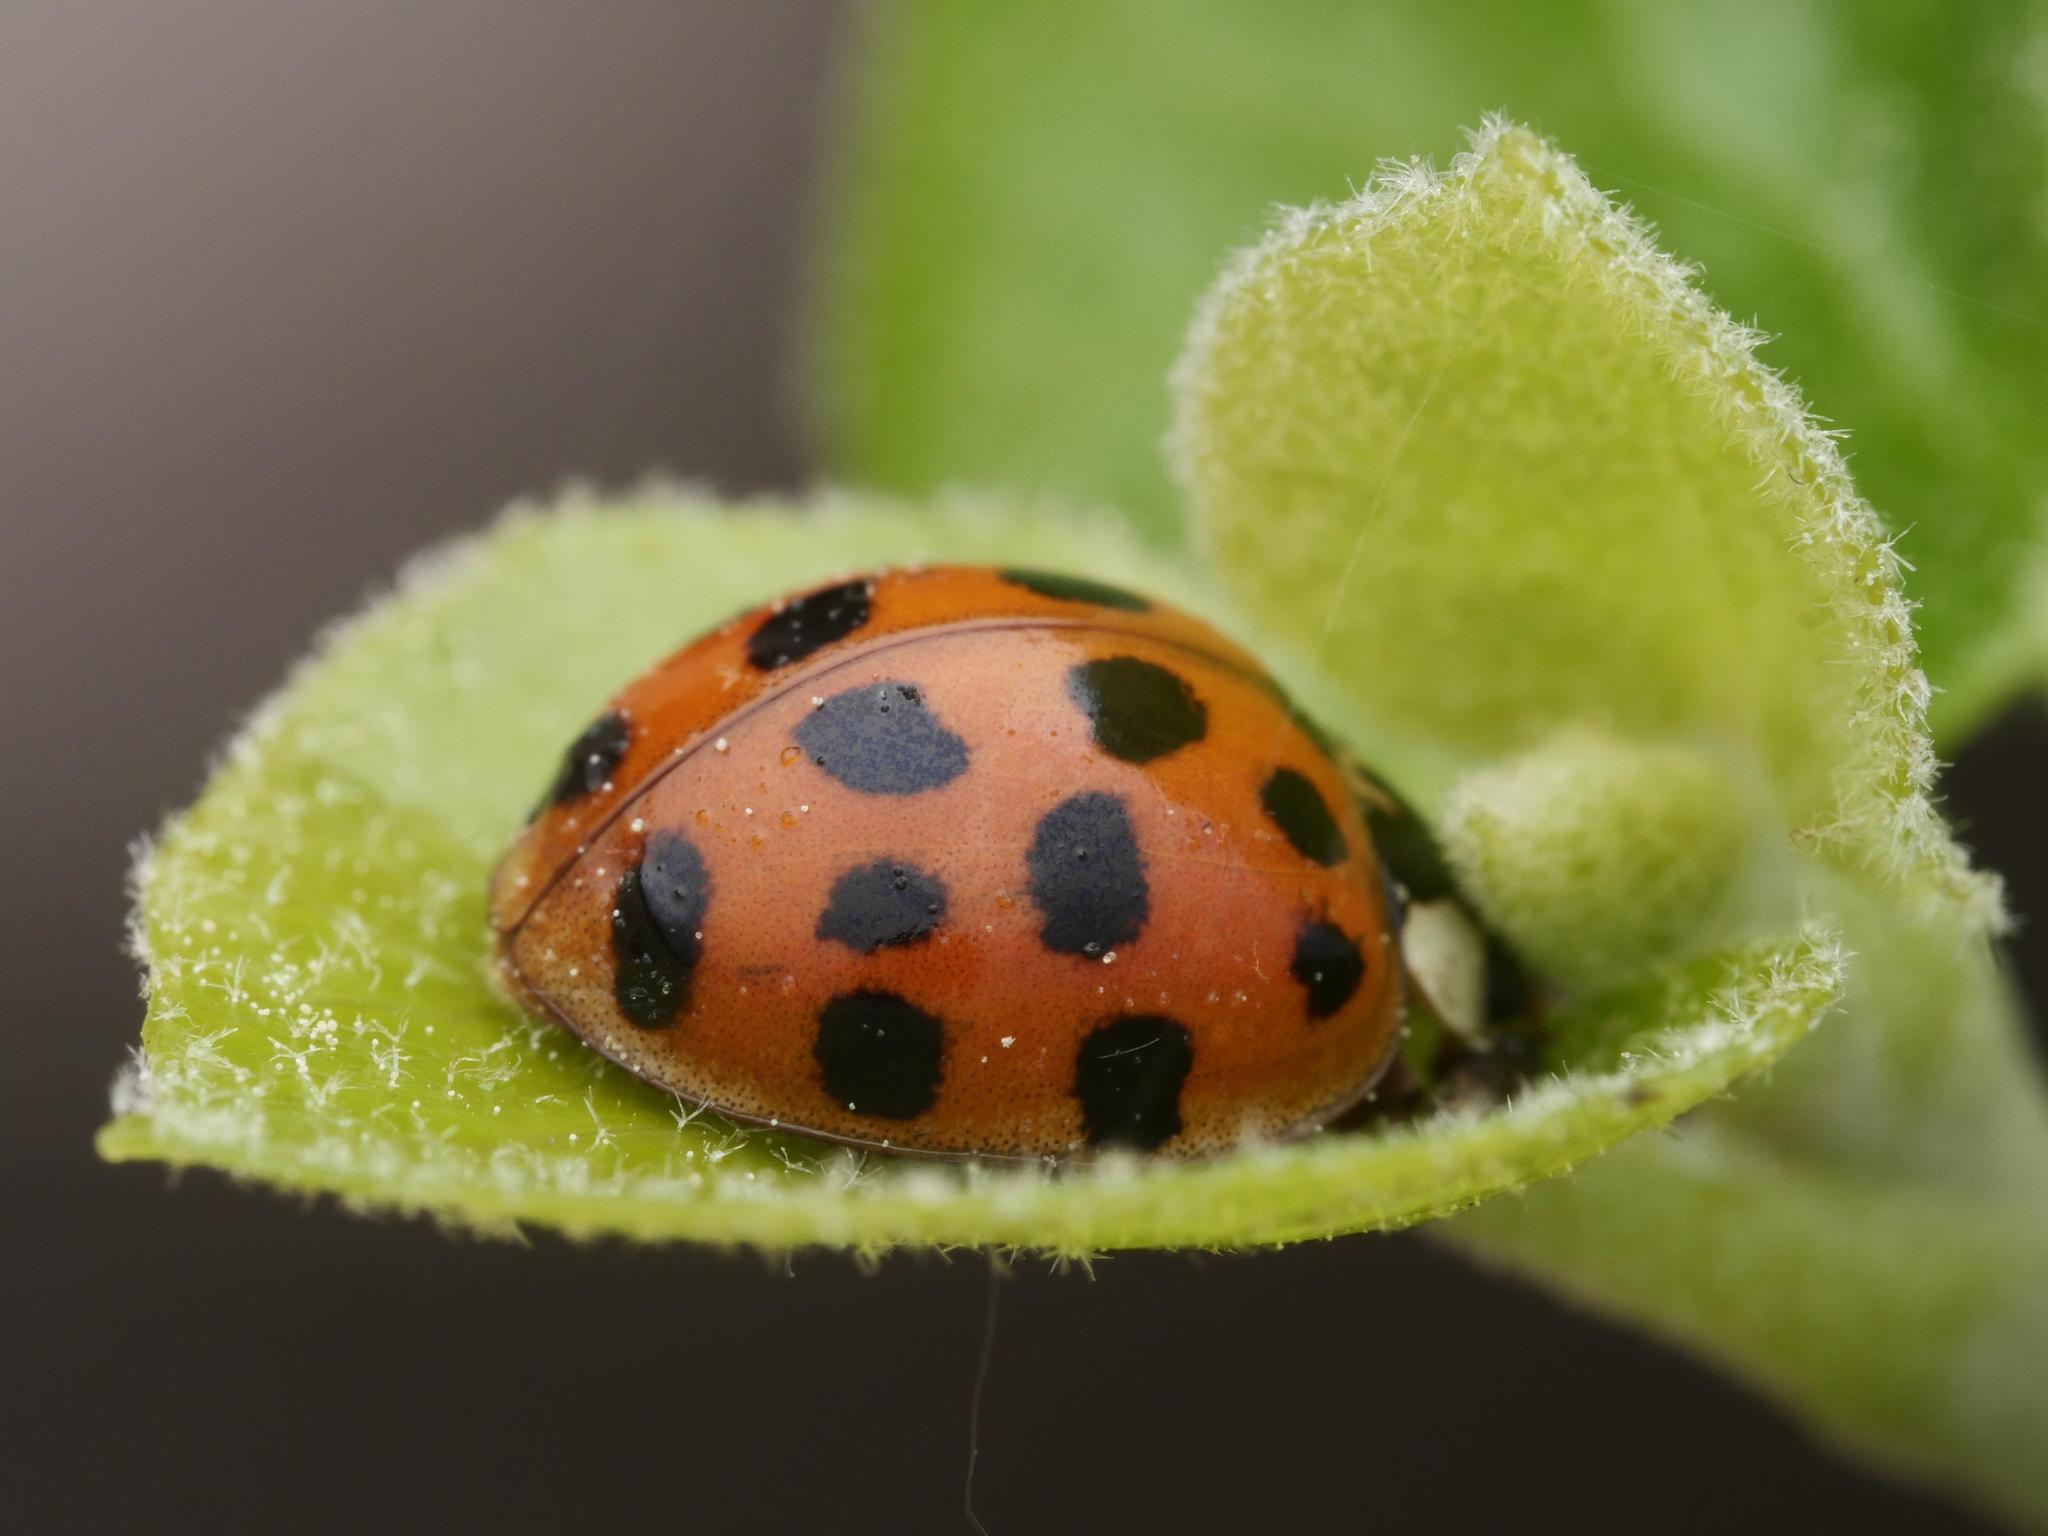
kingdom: Animalia
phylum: Arthropoda
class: Insecta
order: Coleoptera
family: Coccinellidae
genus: Harmonia
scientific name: Harmonia axyridis
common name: Harlequin ladybird
